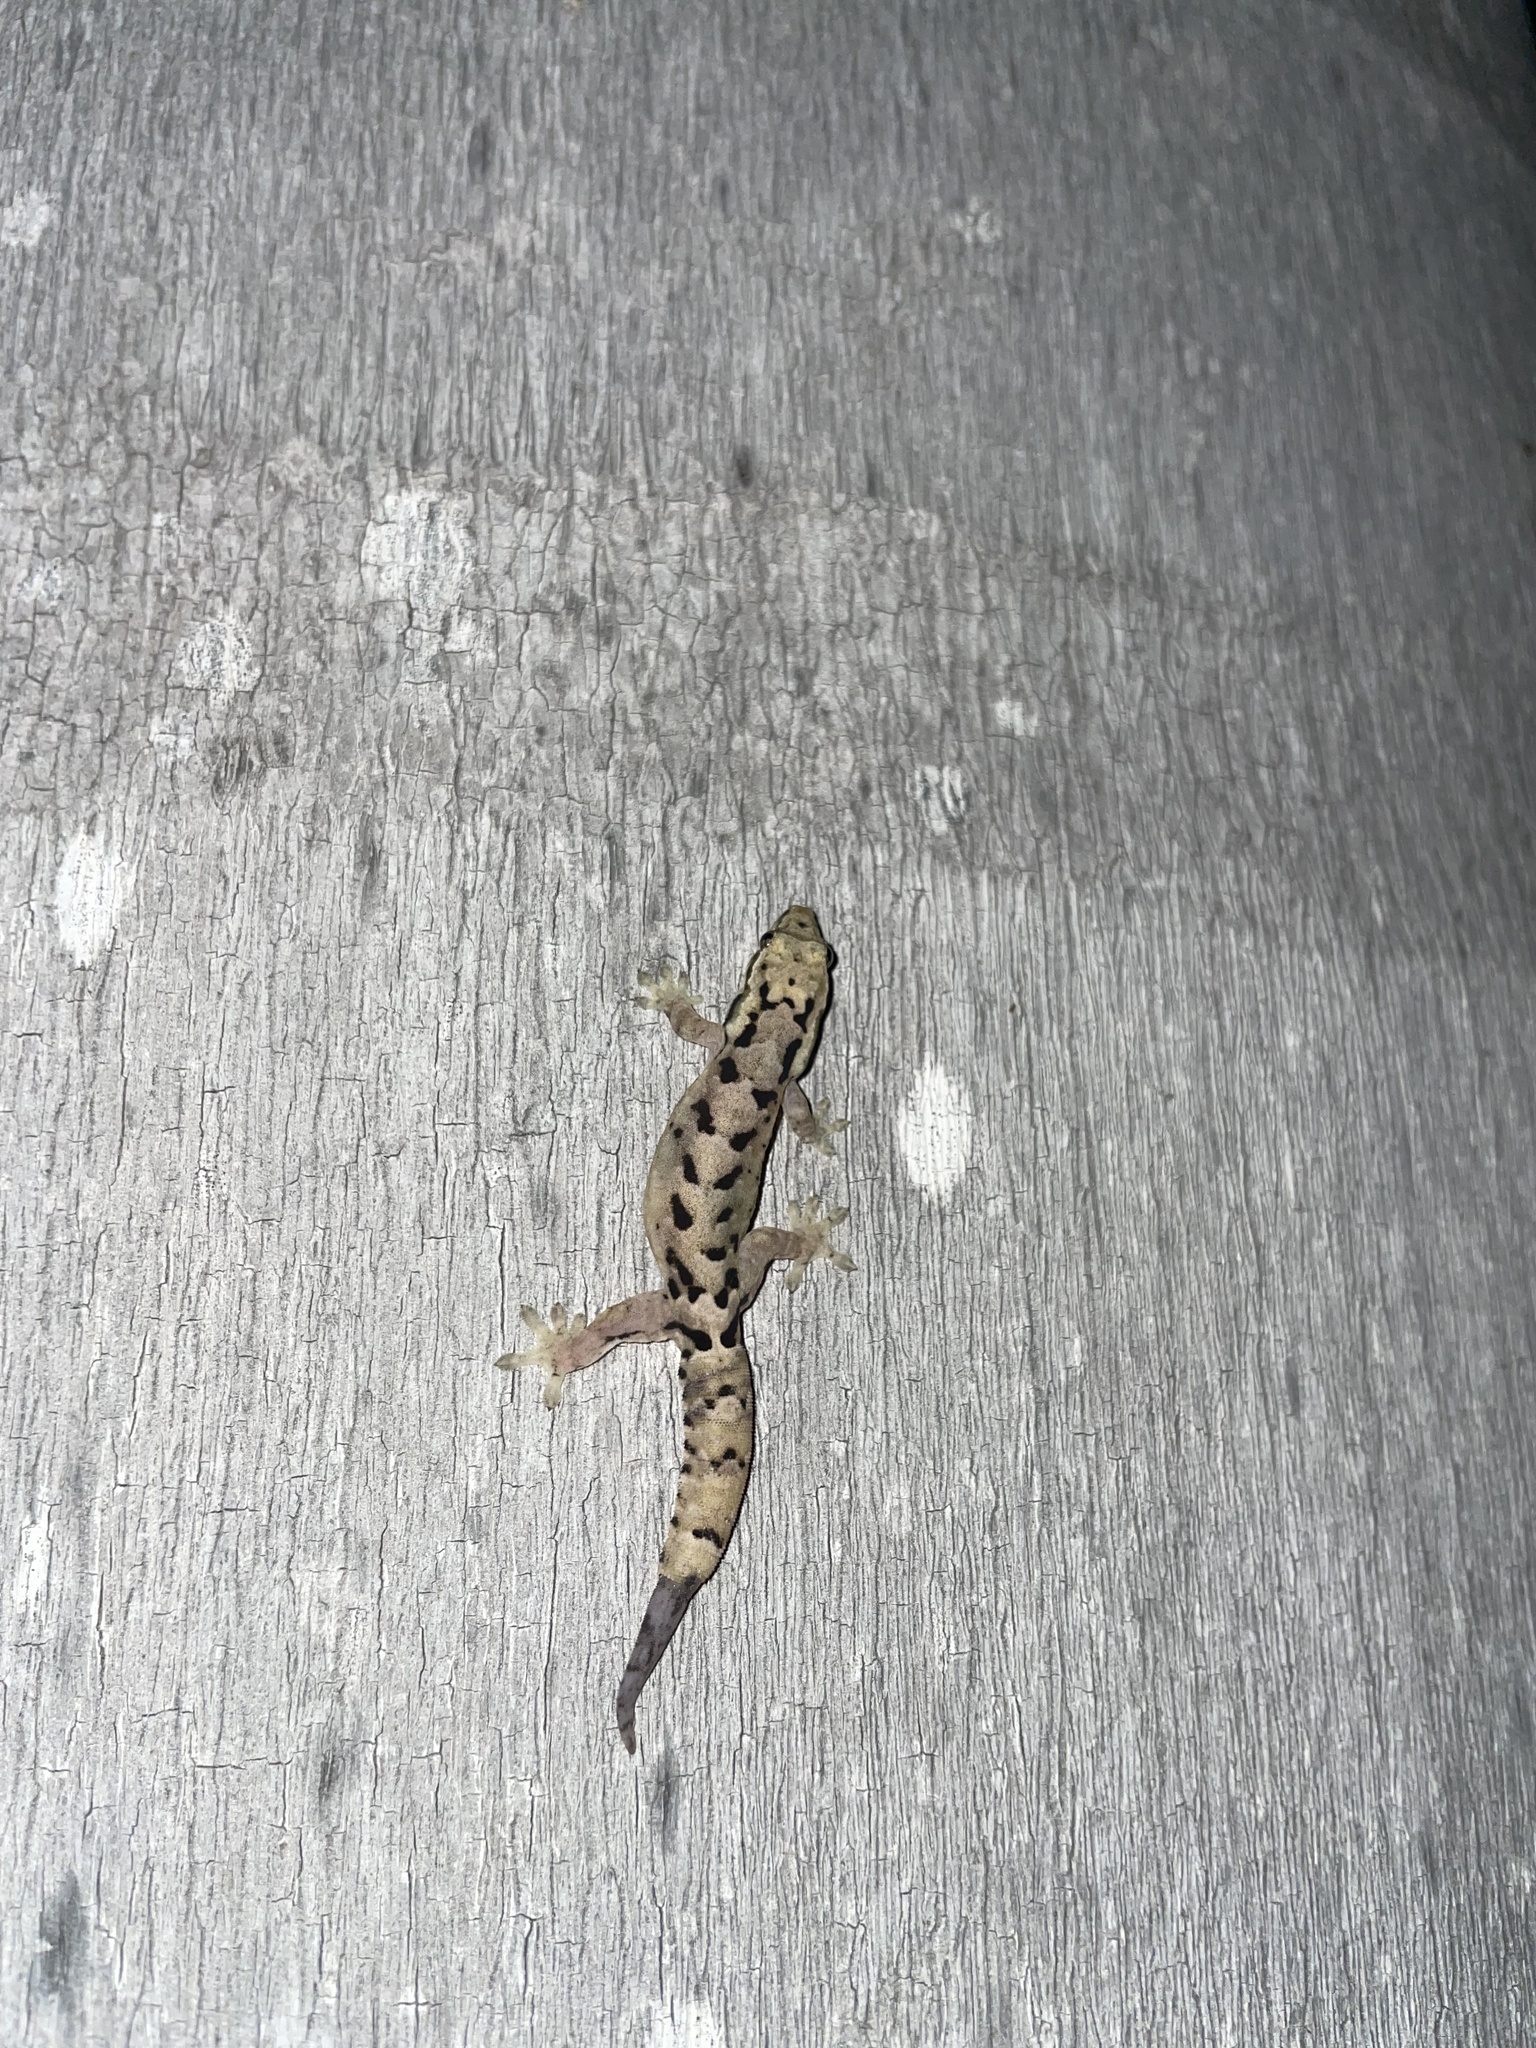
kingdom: Animalia
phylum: Chordata
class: Squamata
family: Gekkonidae
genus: Lepidodactylus
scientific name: Lepidodactylus lugubris
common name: Mourning gecko
